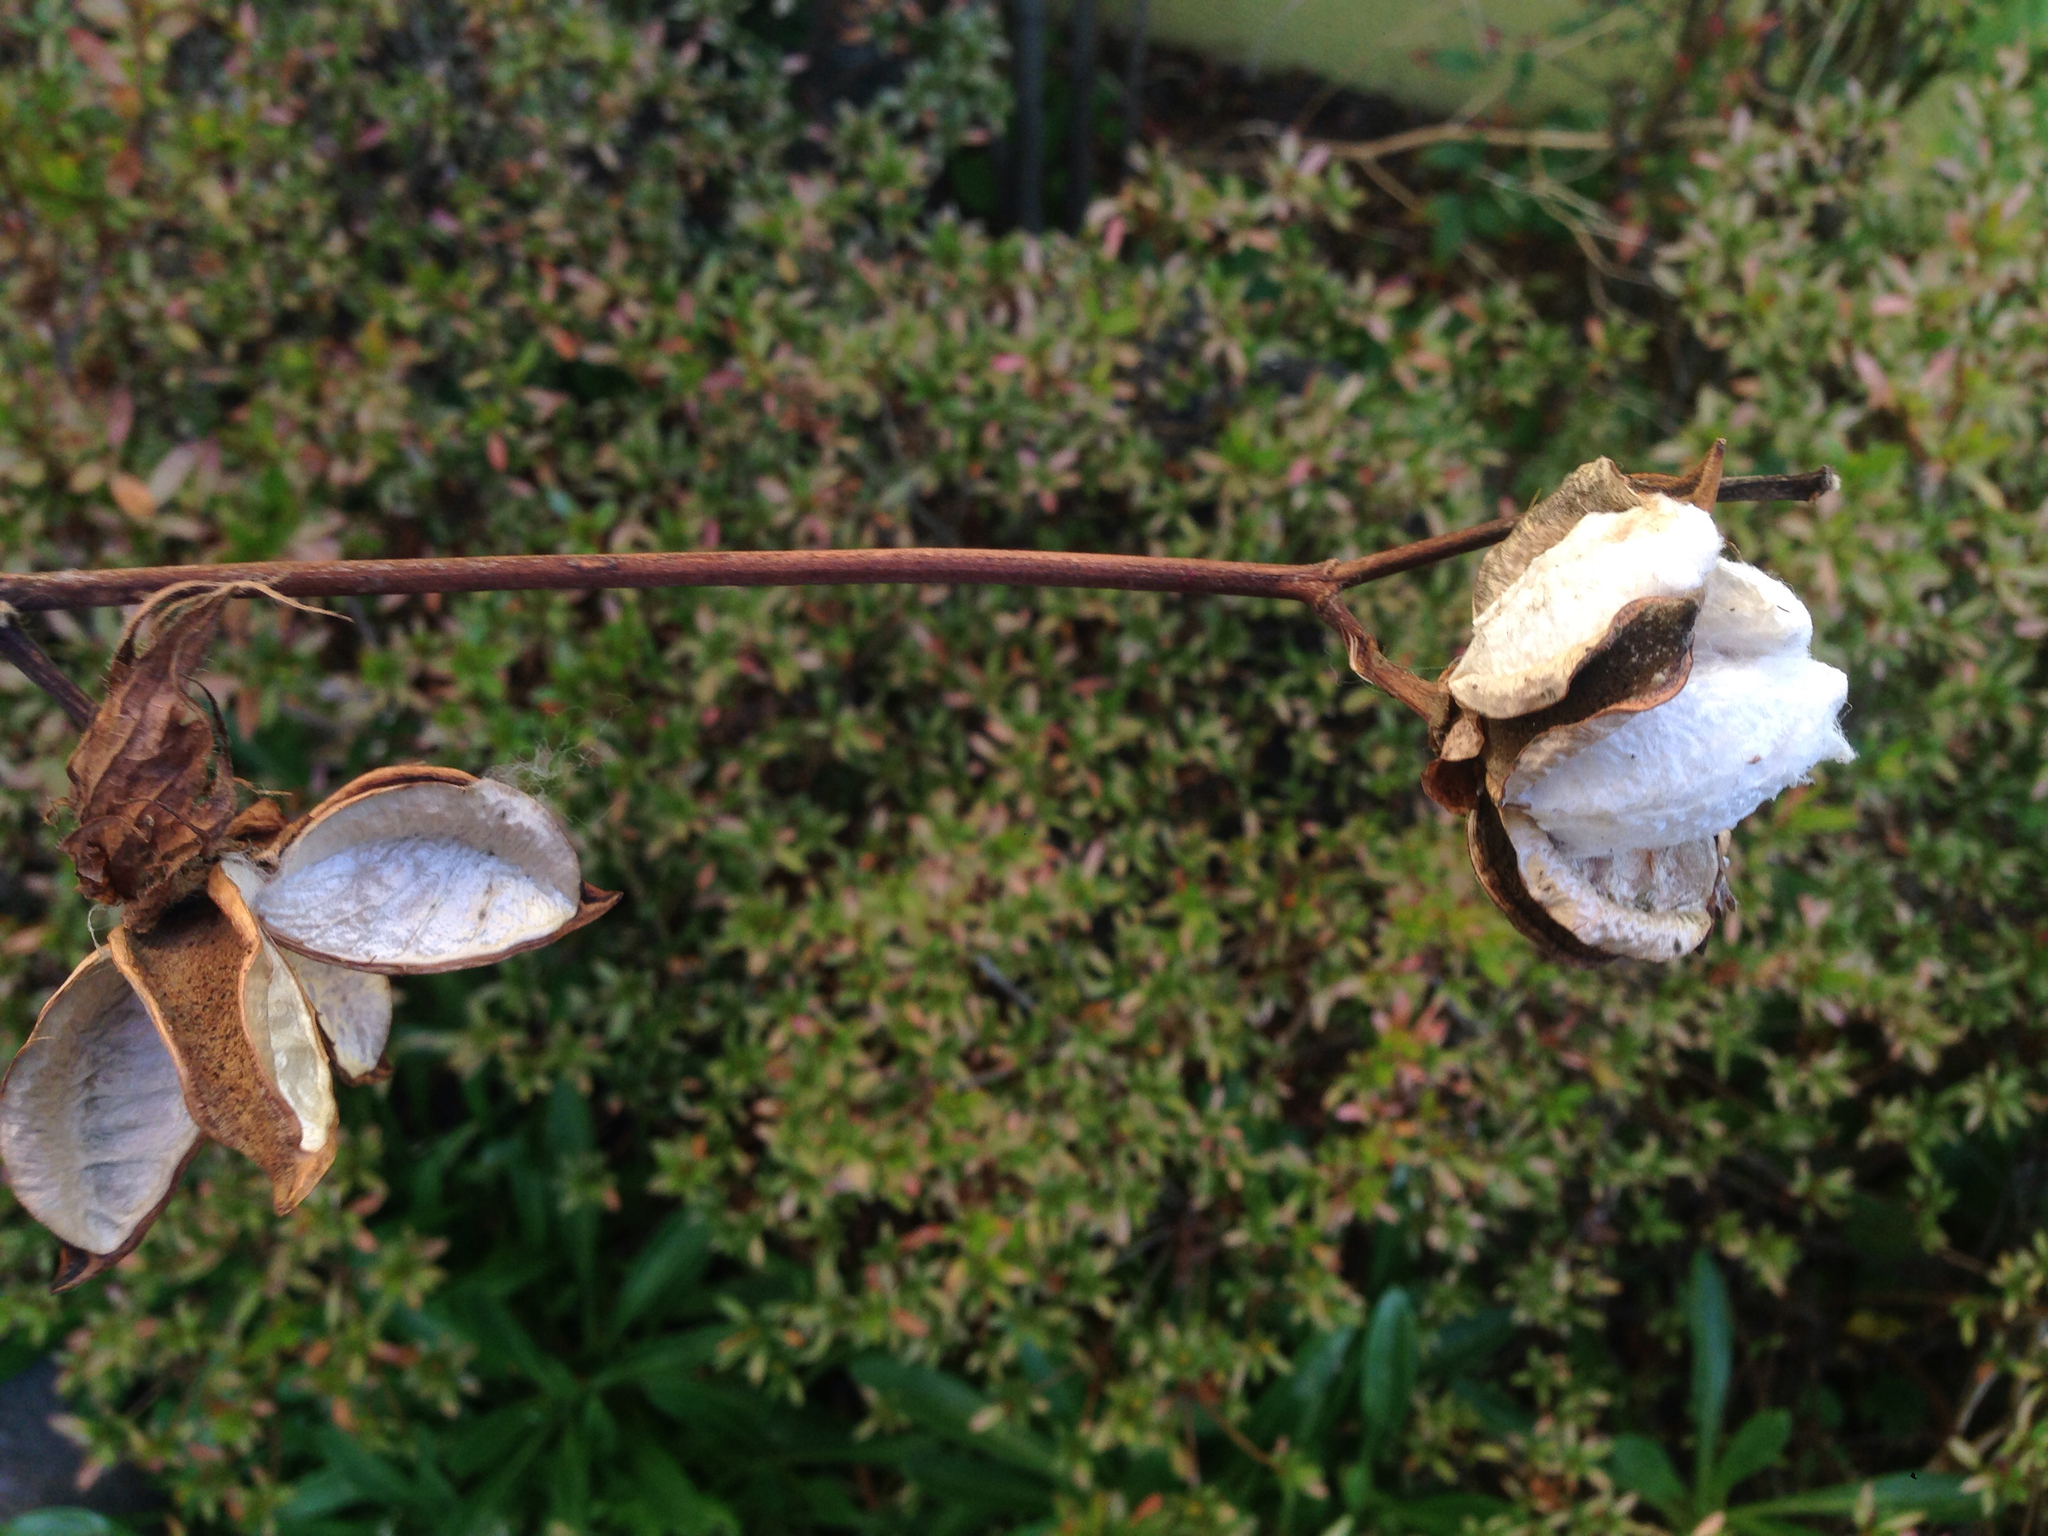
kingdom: Plantae
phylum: Tracheophyta
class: Magnoliopsida
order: Malvales
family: Malvaceae
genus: Gossypium
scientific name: Gossypium herbaceum
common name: Levant cotton
